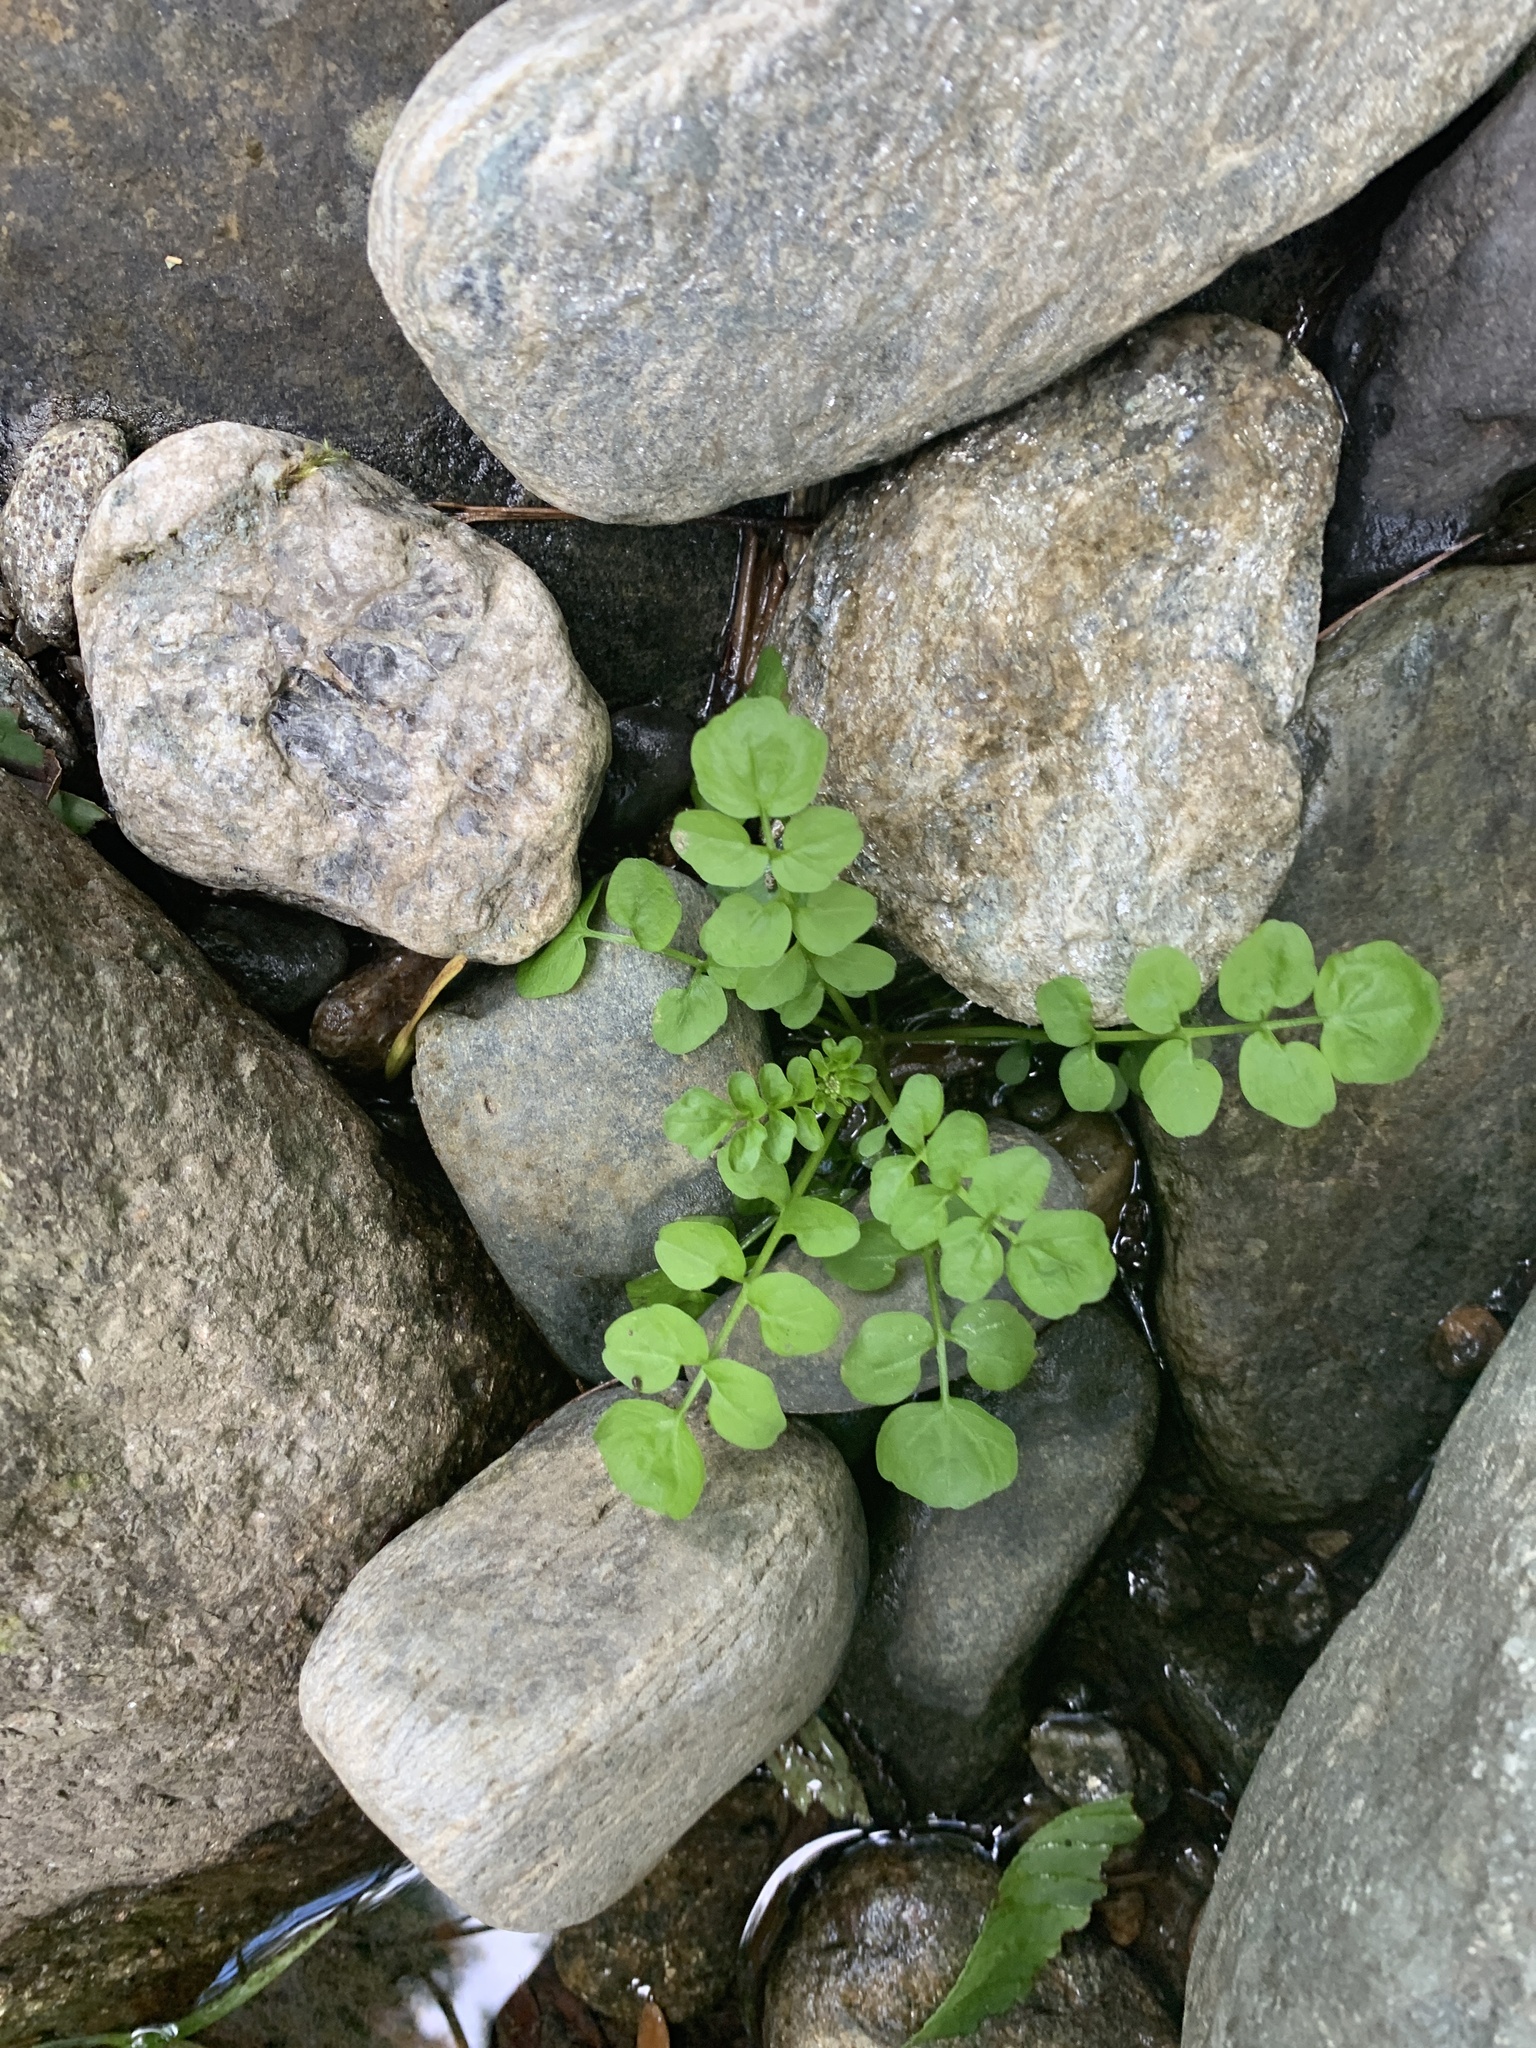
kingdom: Plantae
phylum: Tracheophyta
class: Magnoliopsida
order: Brassicales
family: Brassicaceae
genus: Cardamine
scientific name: Cardamine pensylvanica
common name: Pennsylvania bittercress
